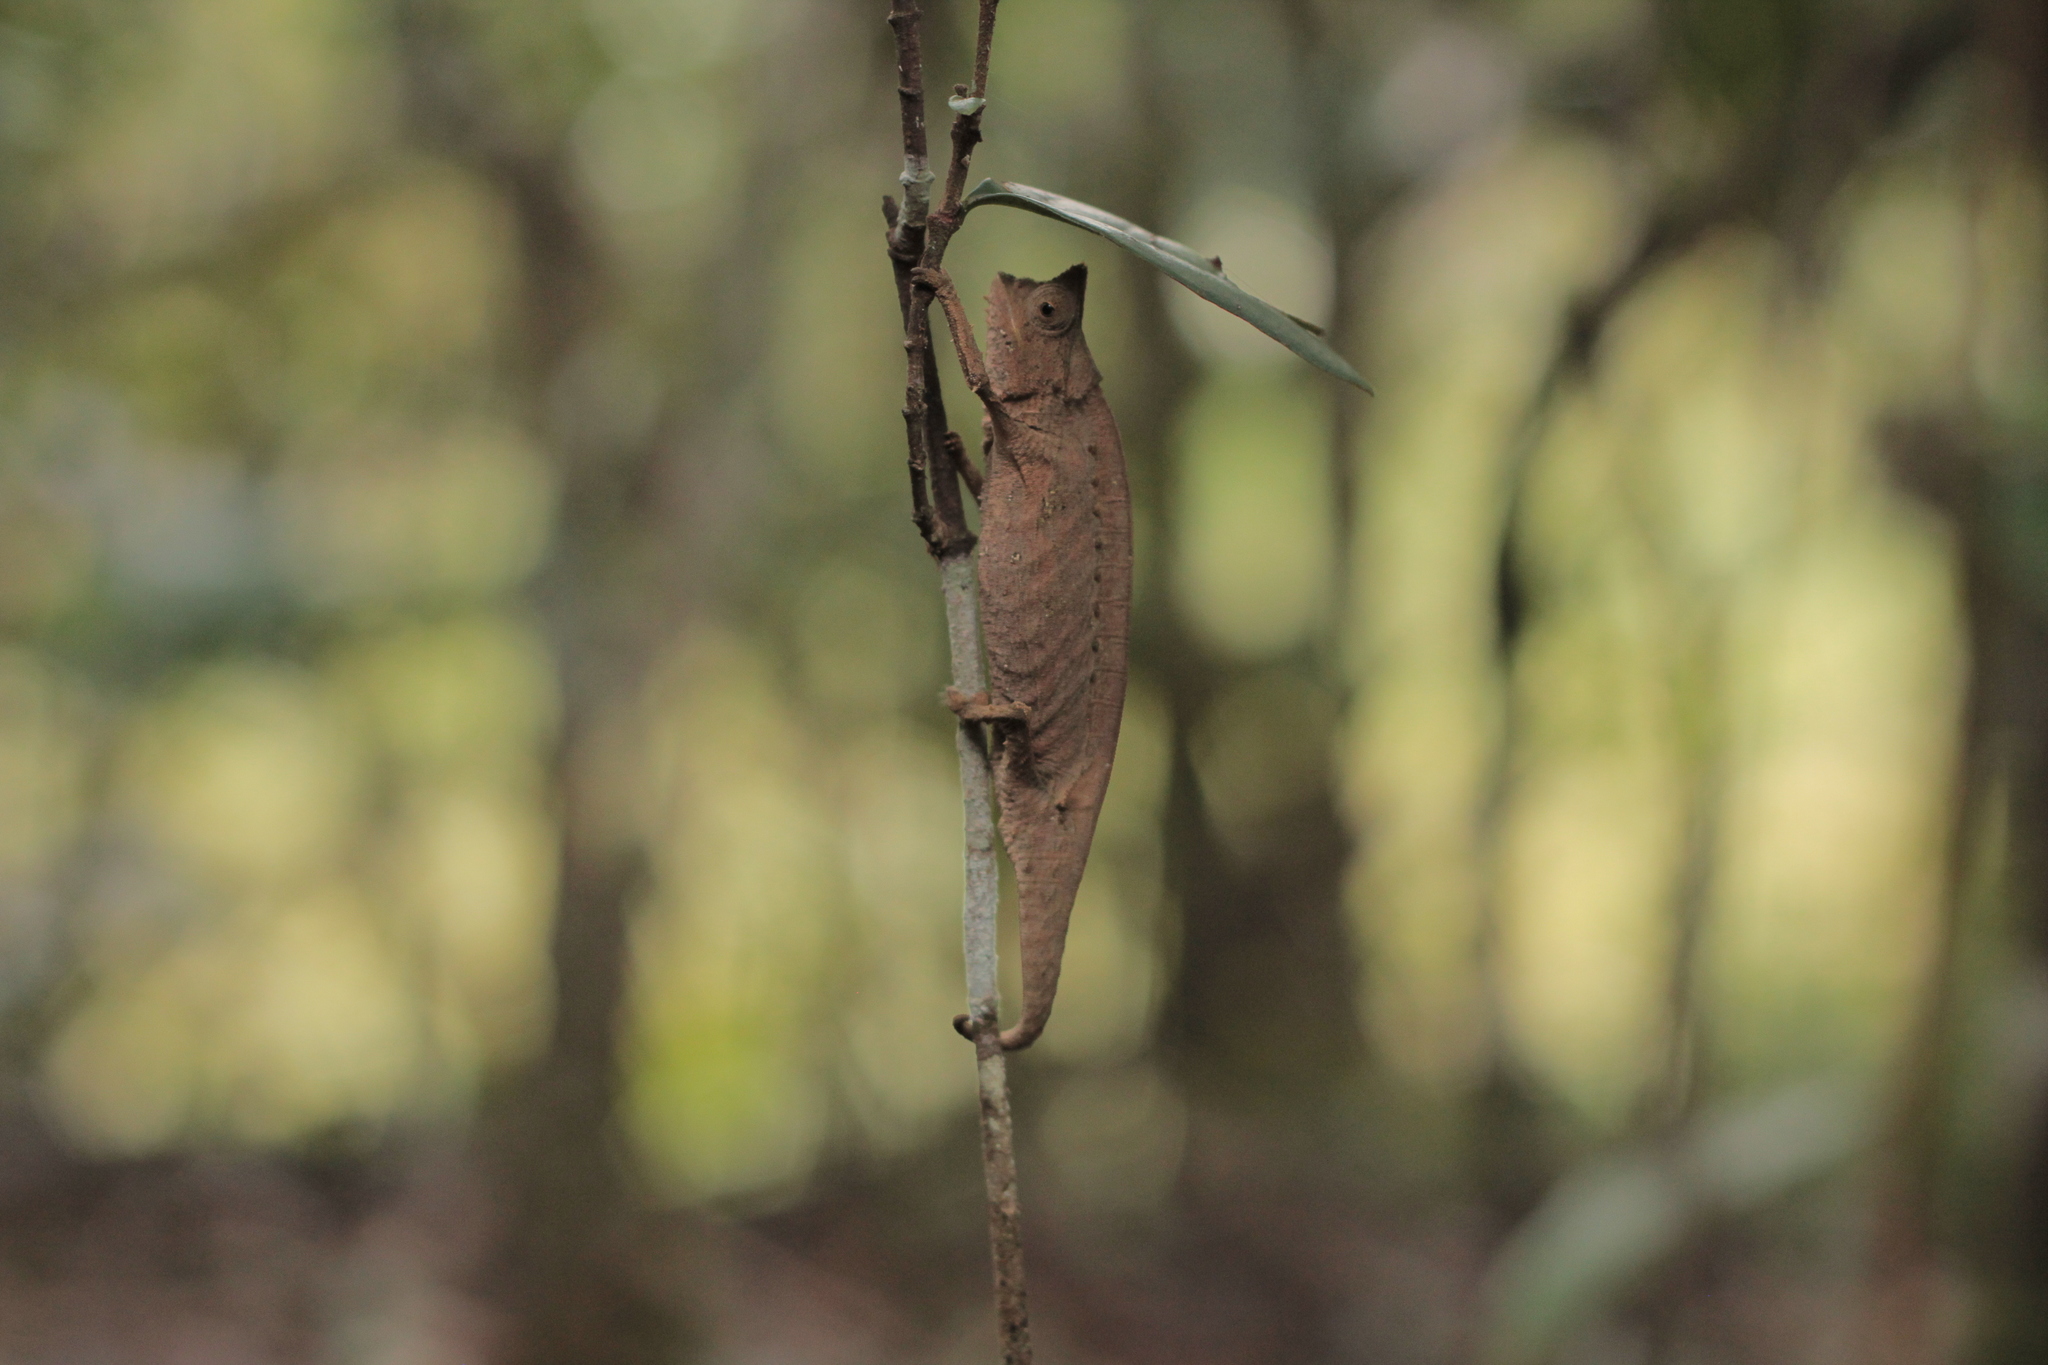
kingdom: Animalia
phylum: Chordata
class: Squamata
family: Chamaeleonidae
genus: Brookesia
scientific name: Brookesia superciliaris
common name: Brown leaf chameleon
